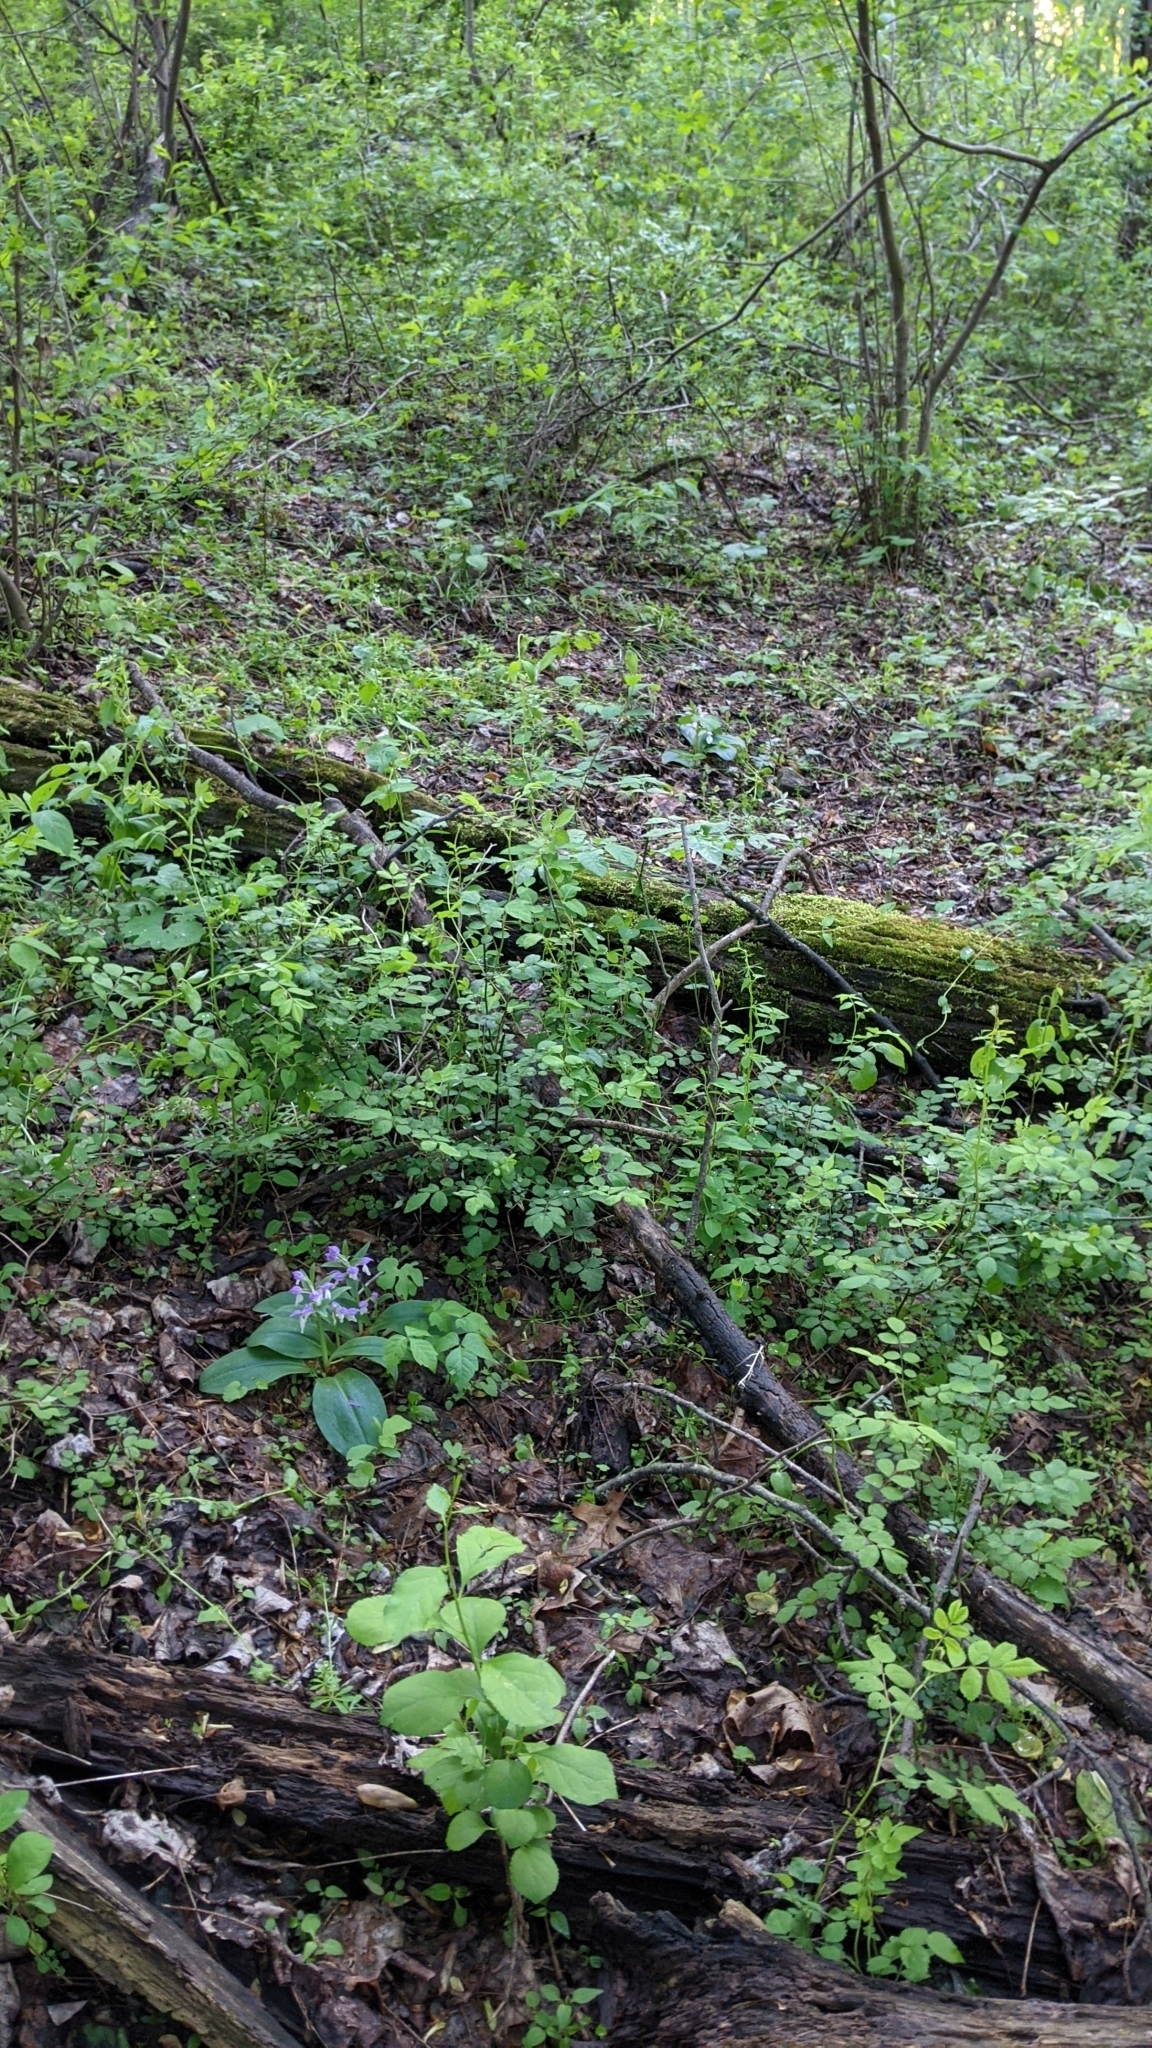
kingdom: Plantae
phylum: Tracheophyta
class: Liliopsida
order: Asparagales
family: Orchidaceae
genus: Galearis
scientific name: Galearis spectabilis
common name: Purple-hooded orchis
